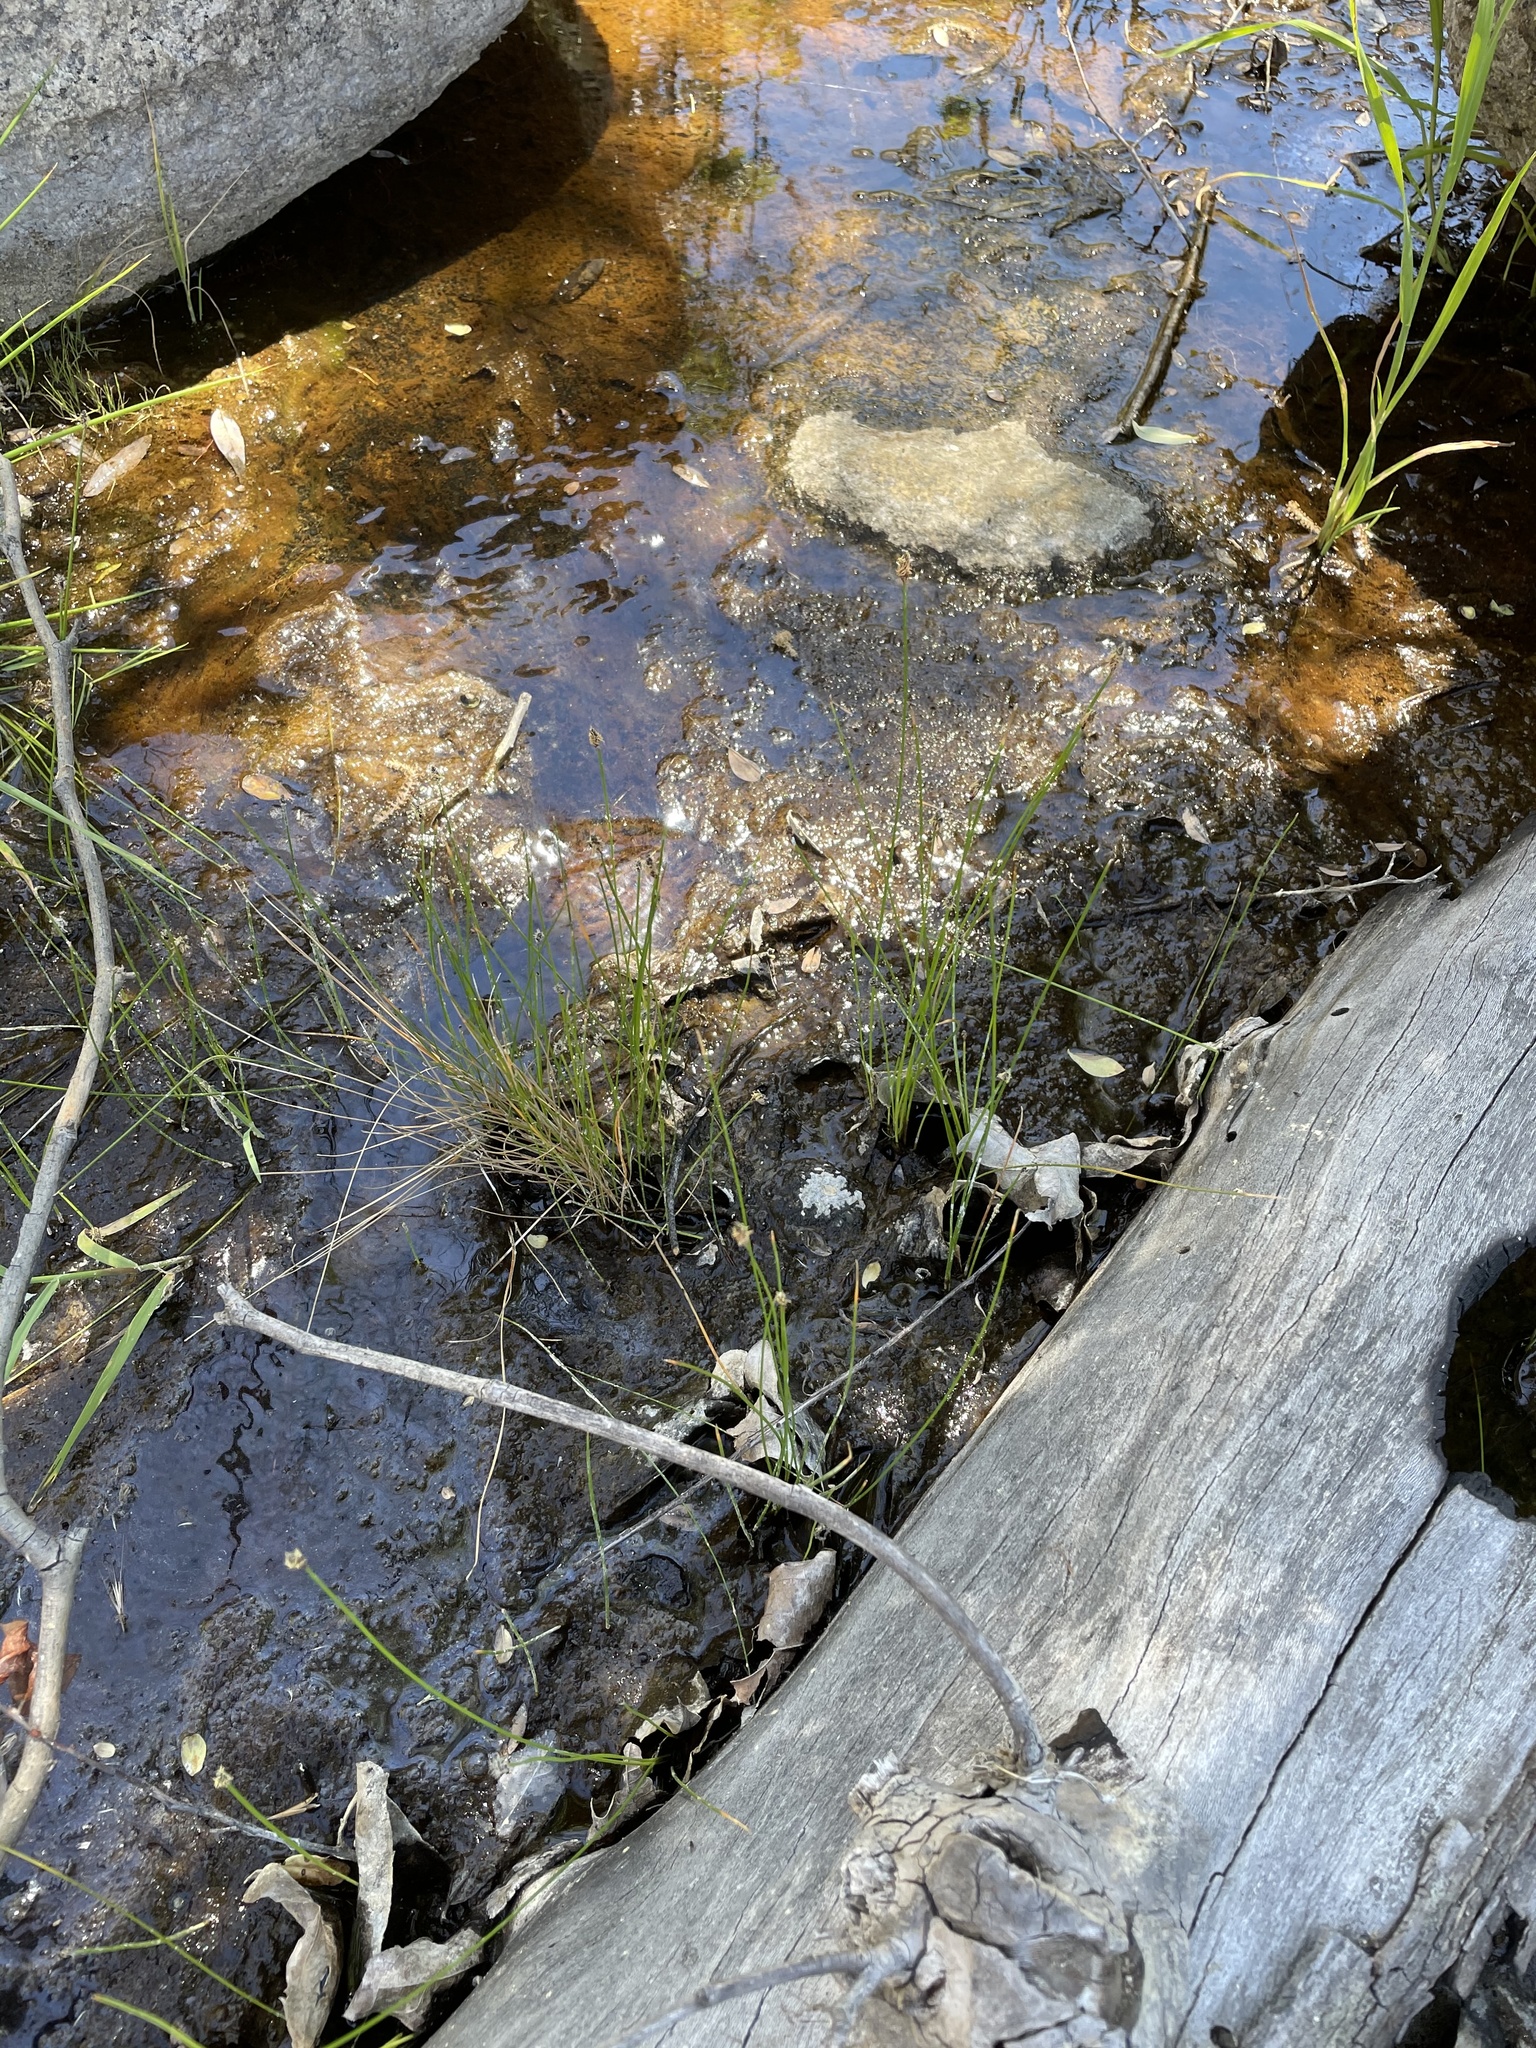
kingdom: Plantae
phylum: Tracheophyta
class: Liliopsida
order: Poales
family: Cyperaceae
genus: Eleocharis
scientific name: Eleocharis montevidensis
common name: Sand spike-rush
